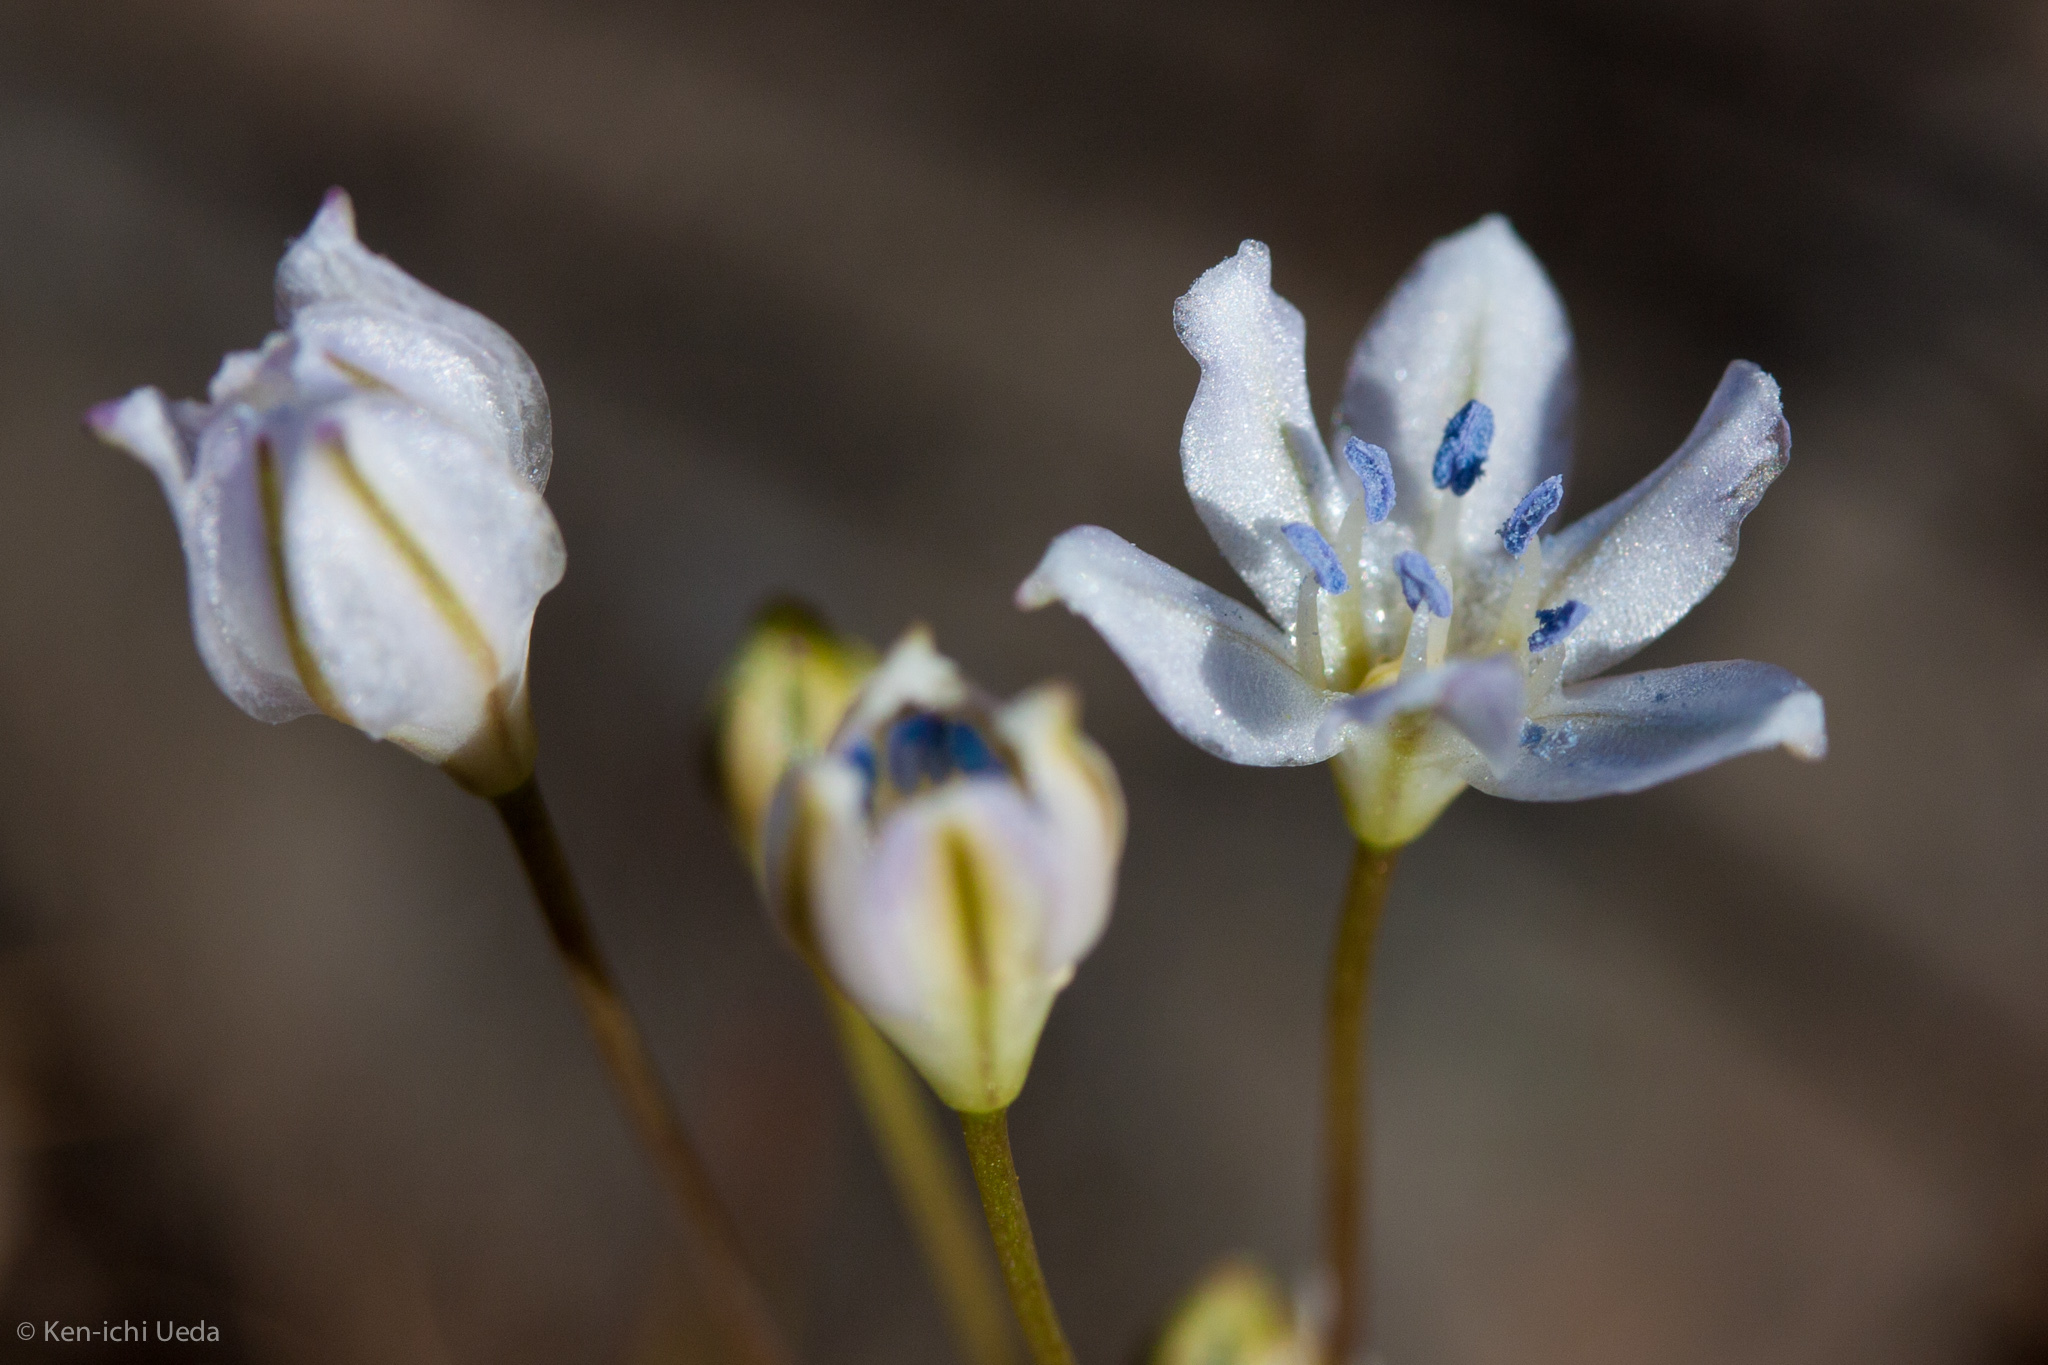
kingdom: Plantae
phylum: Tracheophyta
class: Liliopsida
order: Asparagales
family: Asparagaceae
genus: Triteleia
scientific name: Triteleia lilacina
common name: Lilac-flower wild hyacinth
